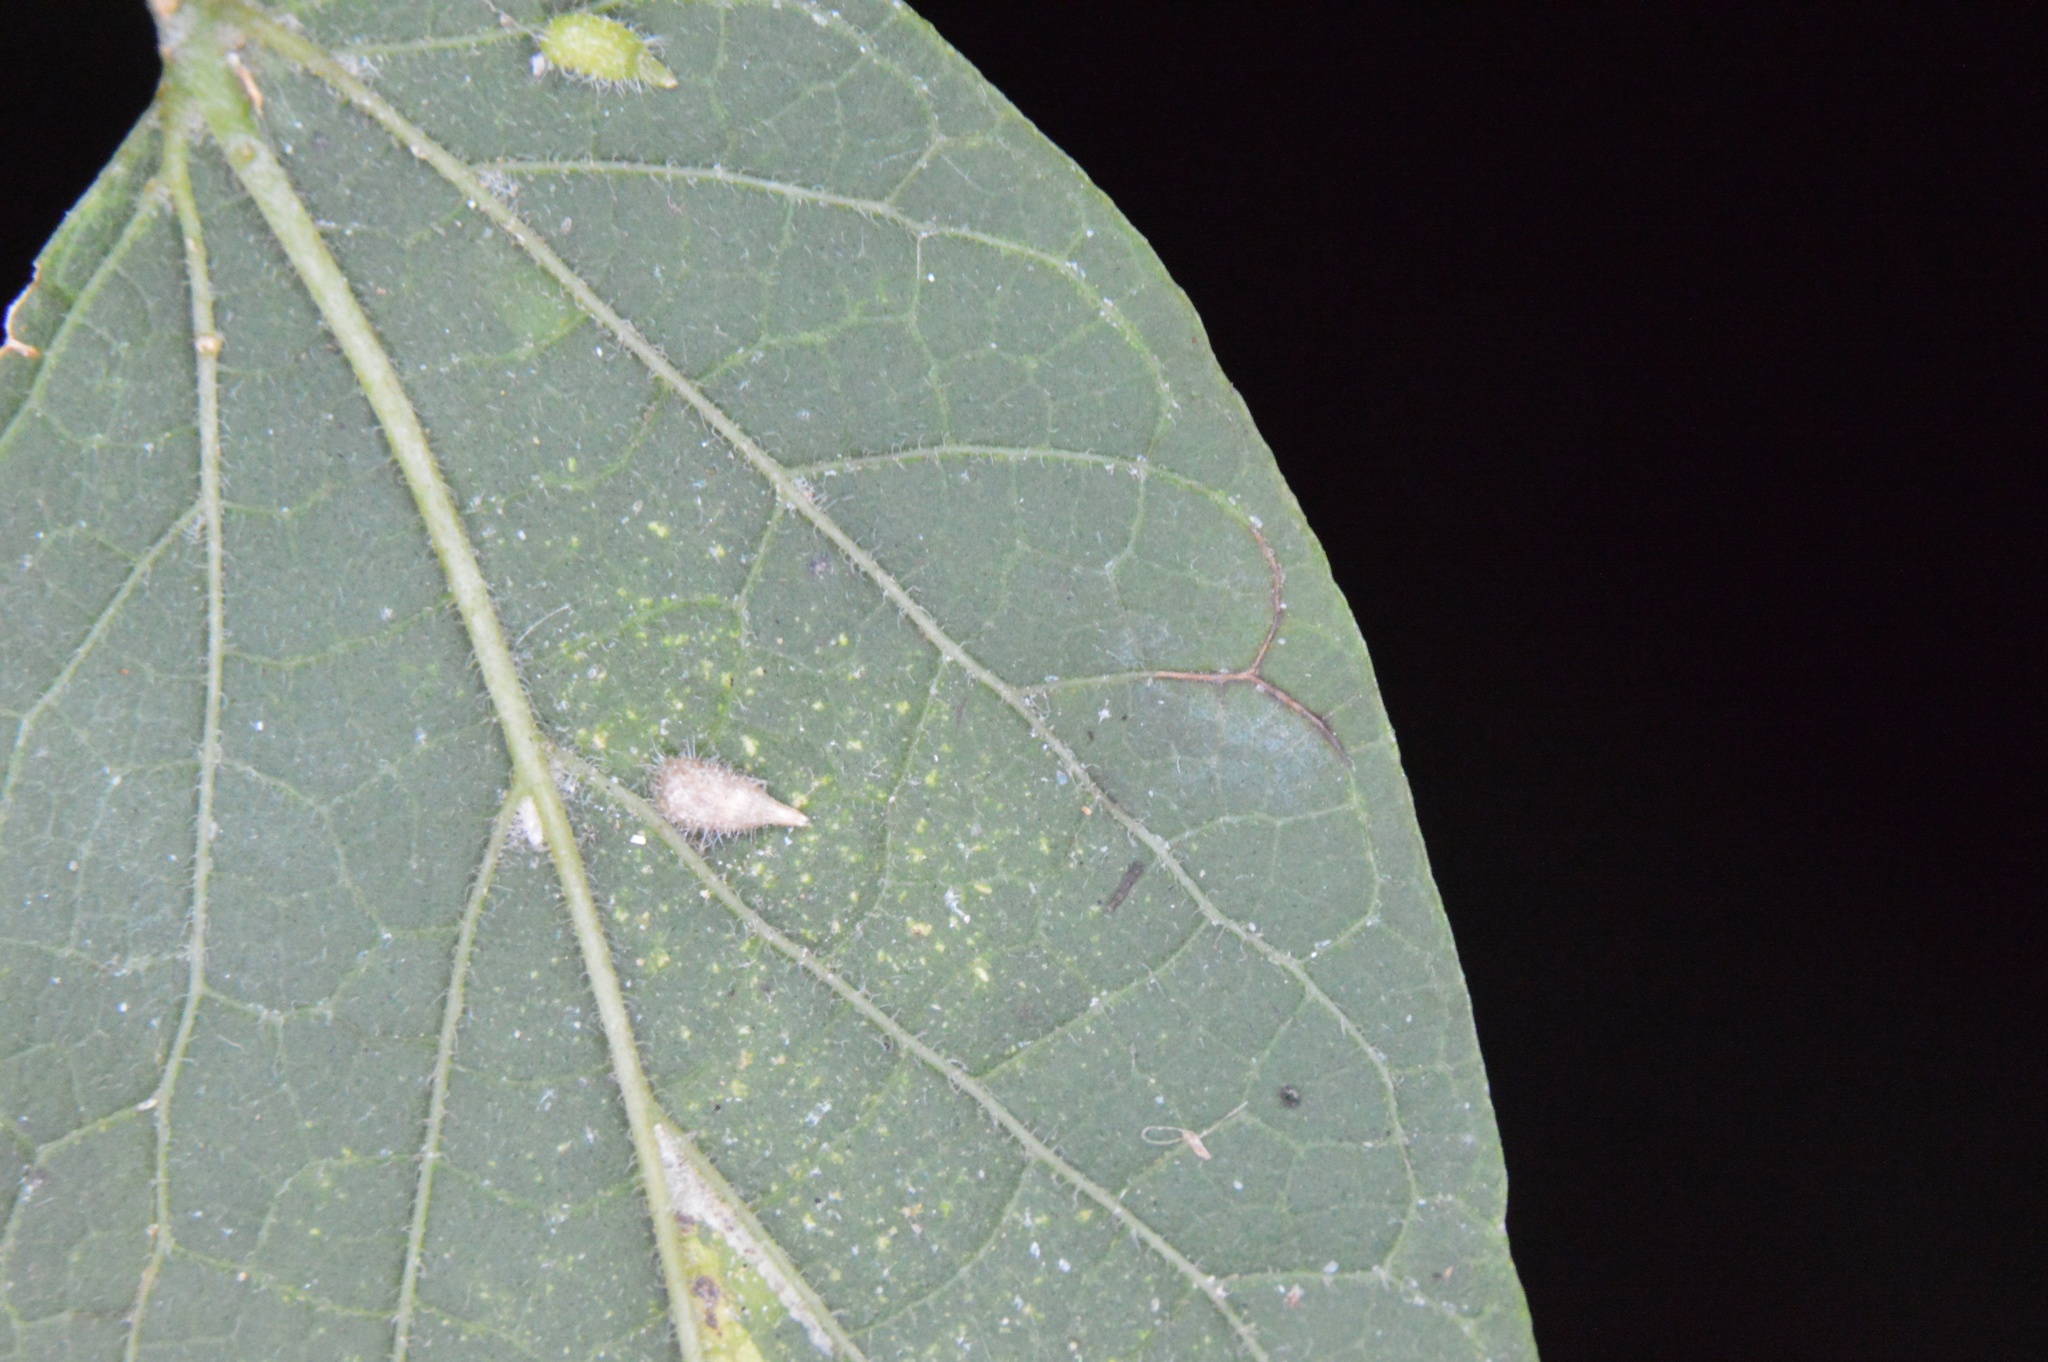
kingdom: Animalia
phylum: Arthropoda
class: Insecta
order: Diptera
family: Cecidomyiidae
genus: Celticecis
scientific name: Celticecis supina
